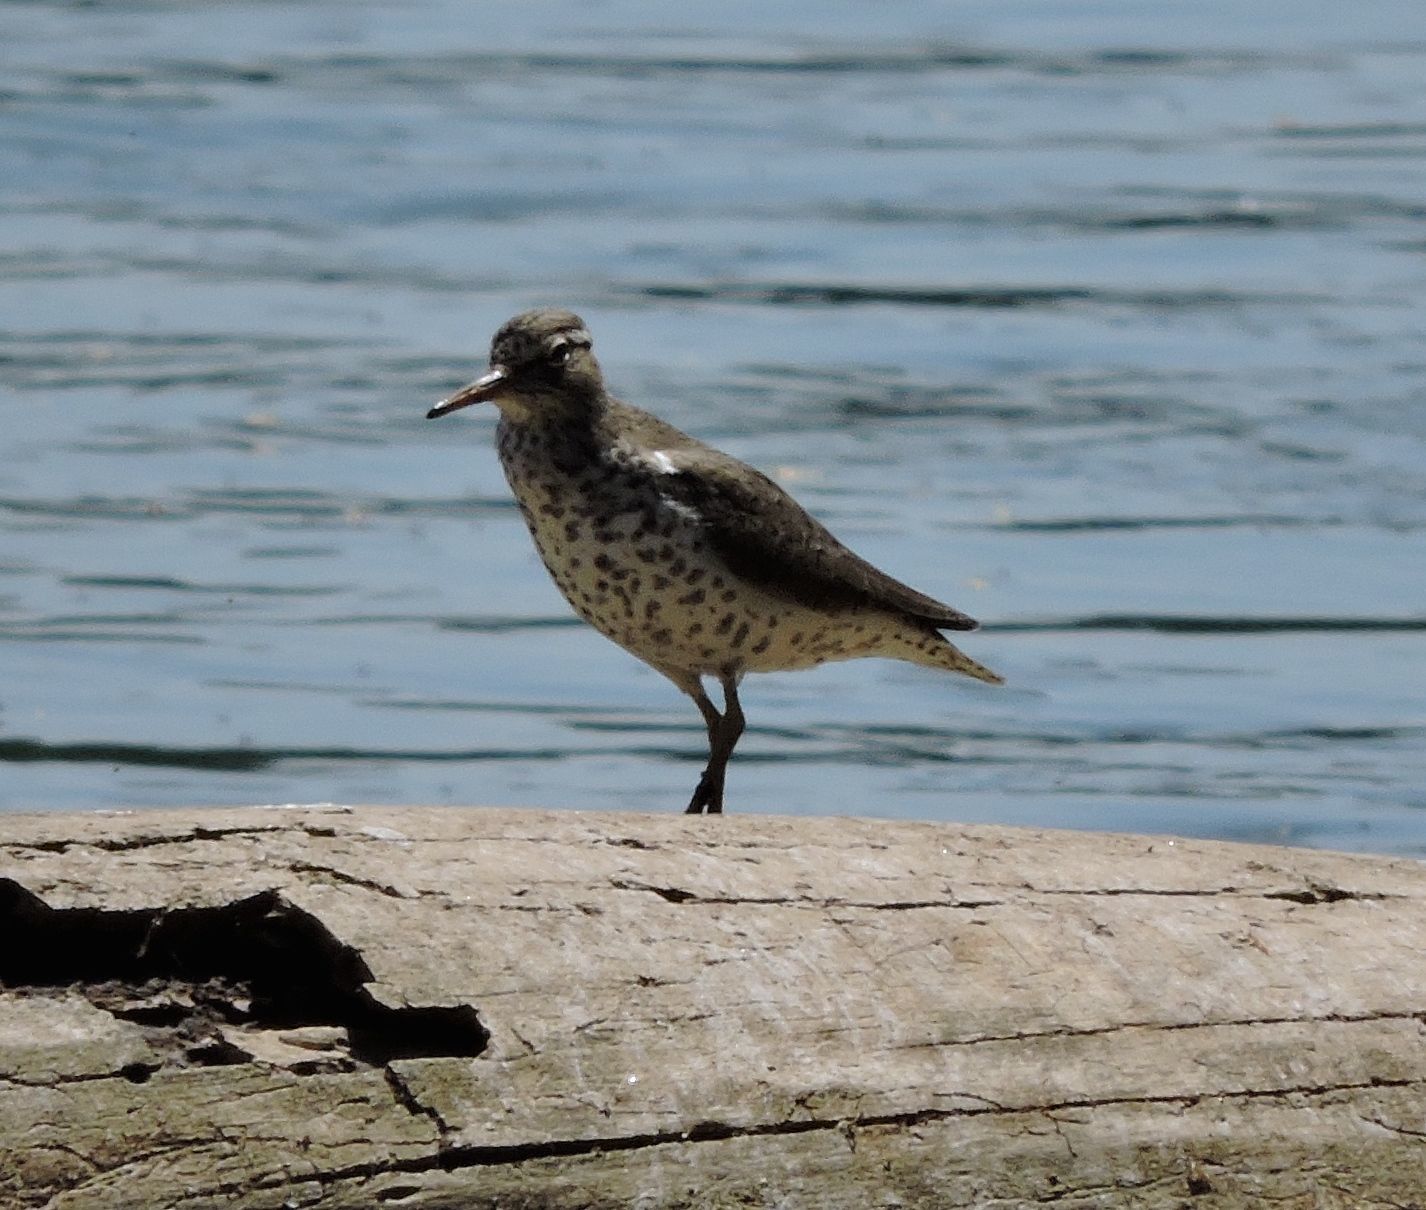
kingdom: Animalia
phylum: Chordata
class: Aves
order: Charadriiformes
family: Scolopacidae
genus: Actitis
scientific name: Actitis macularius
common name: Spotted sandpiper
